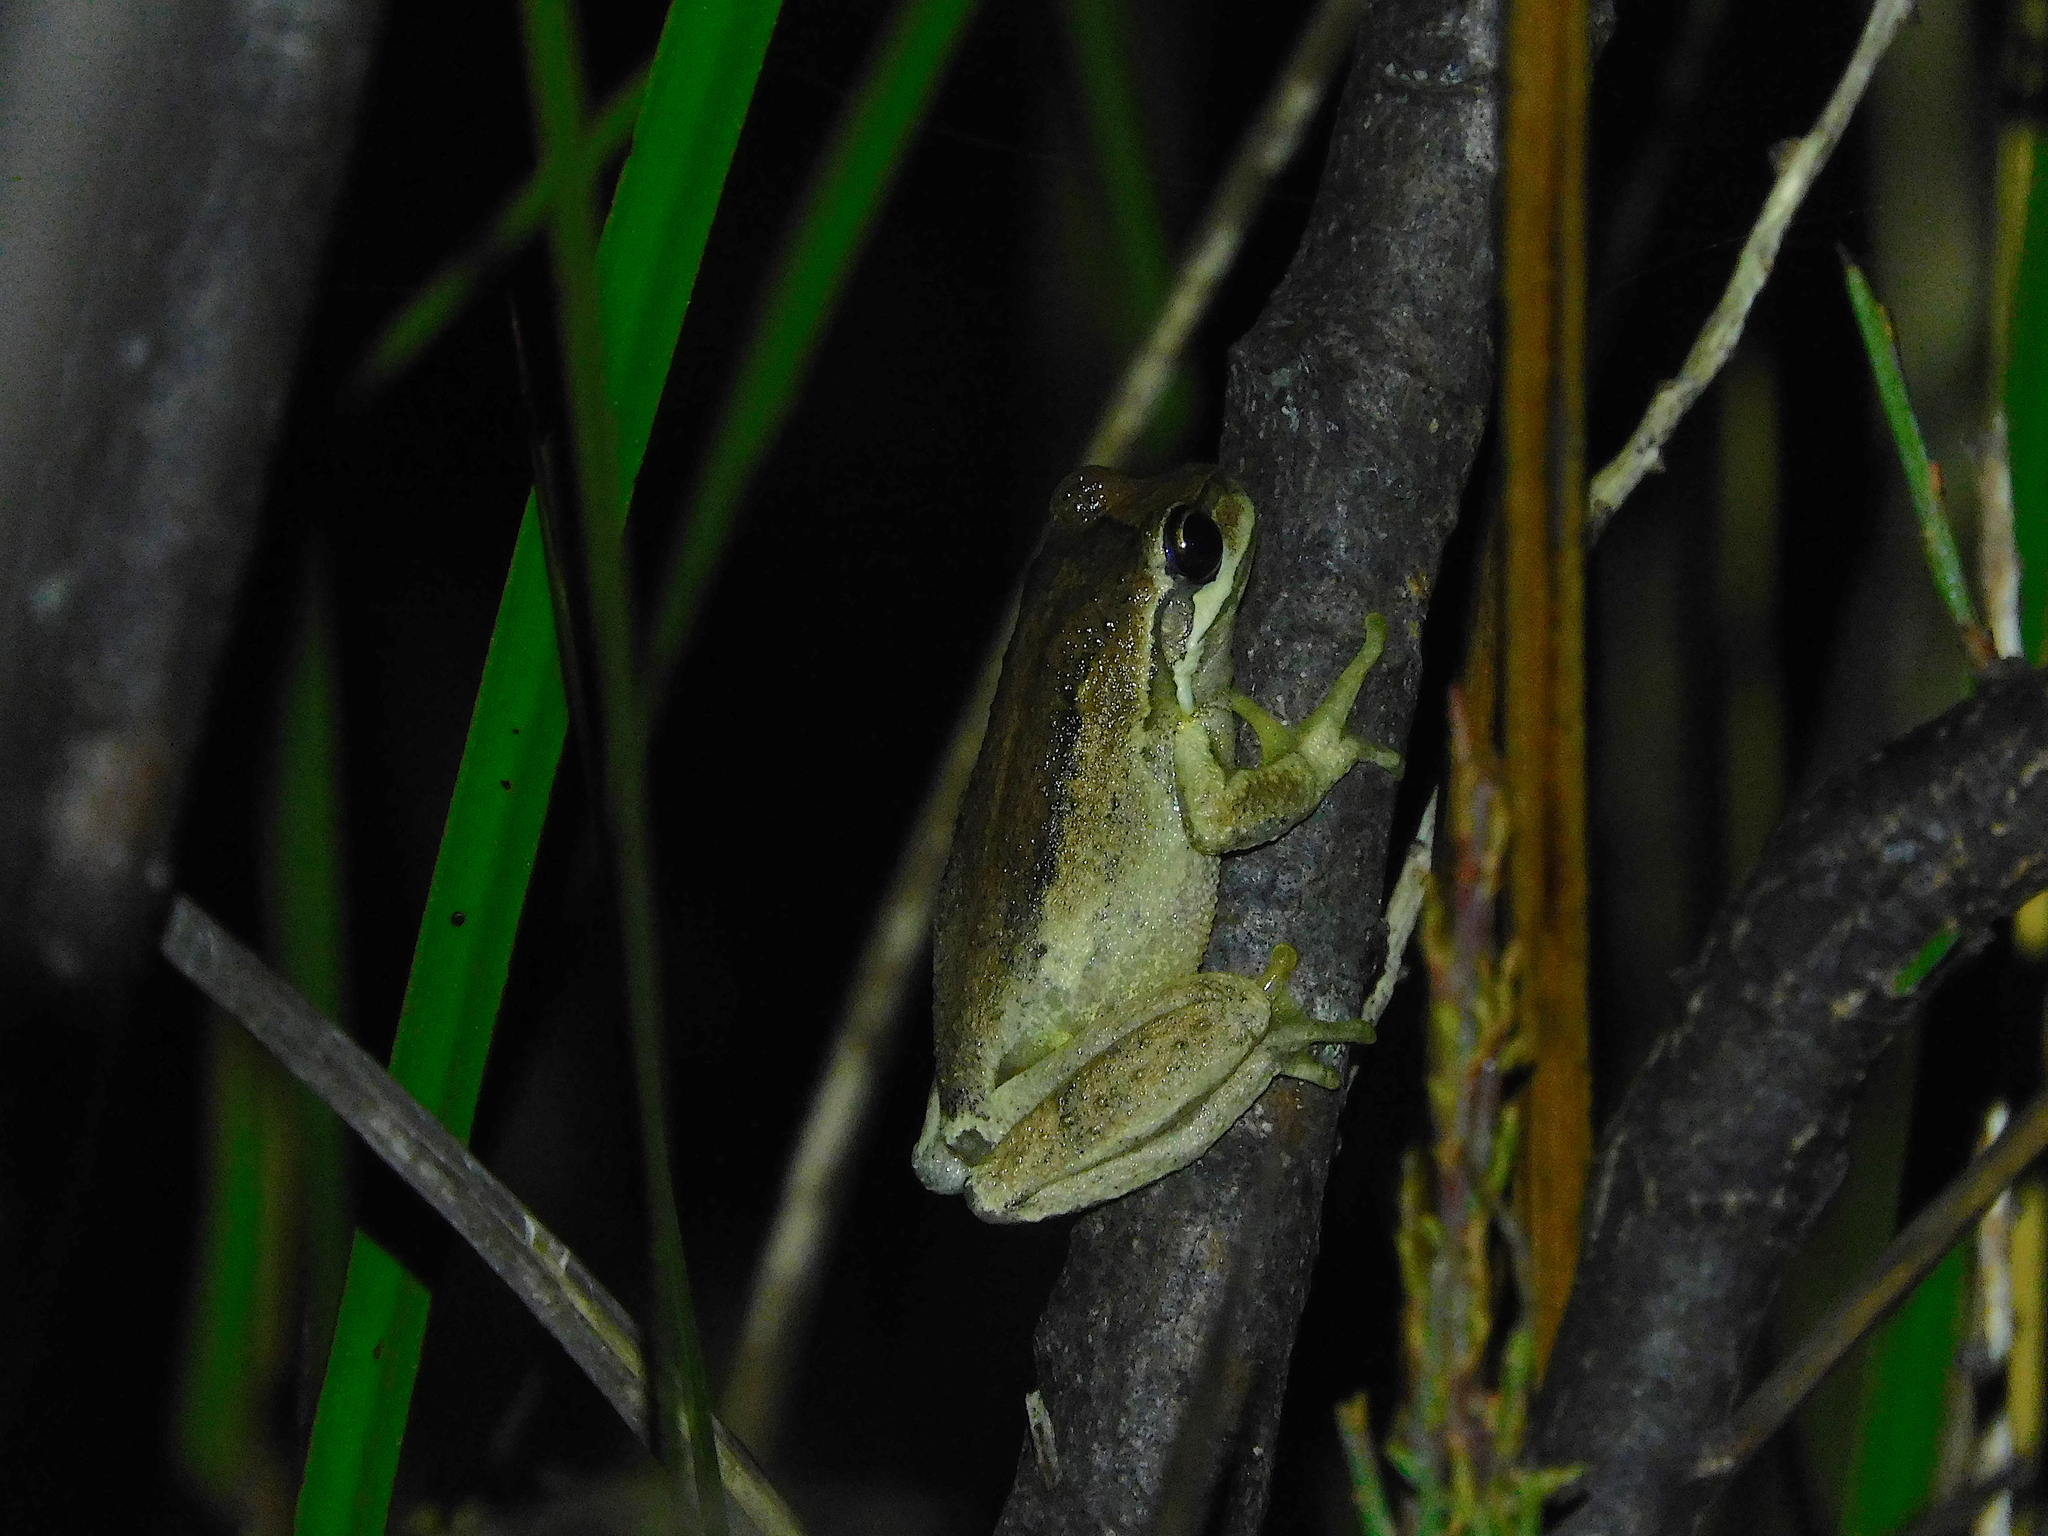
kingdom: Animalia
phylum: Chordata
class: Amphibia
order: Anura
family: Pelodryadidae
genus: Litoria
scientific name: Litoria ewingii
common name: Southern brown tree frog
